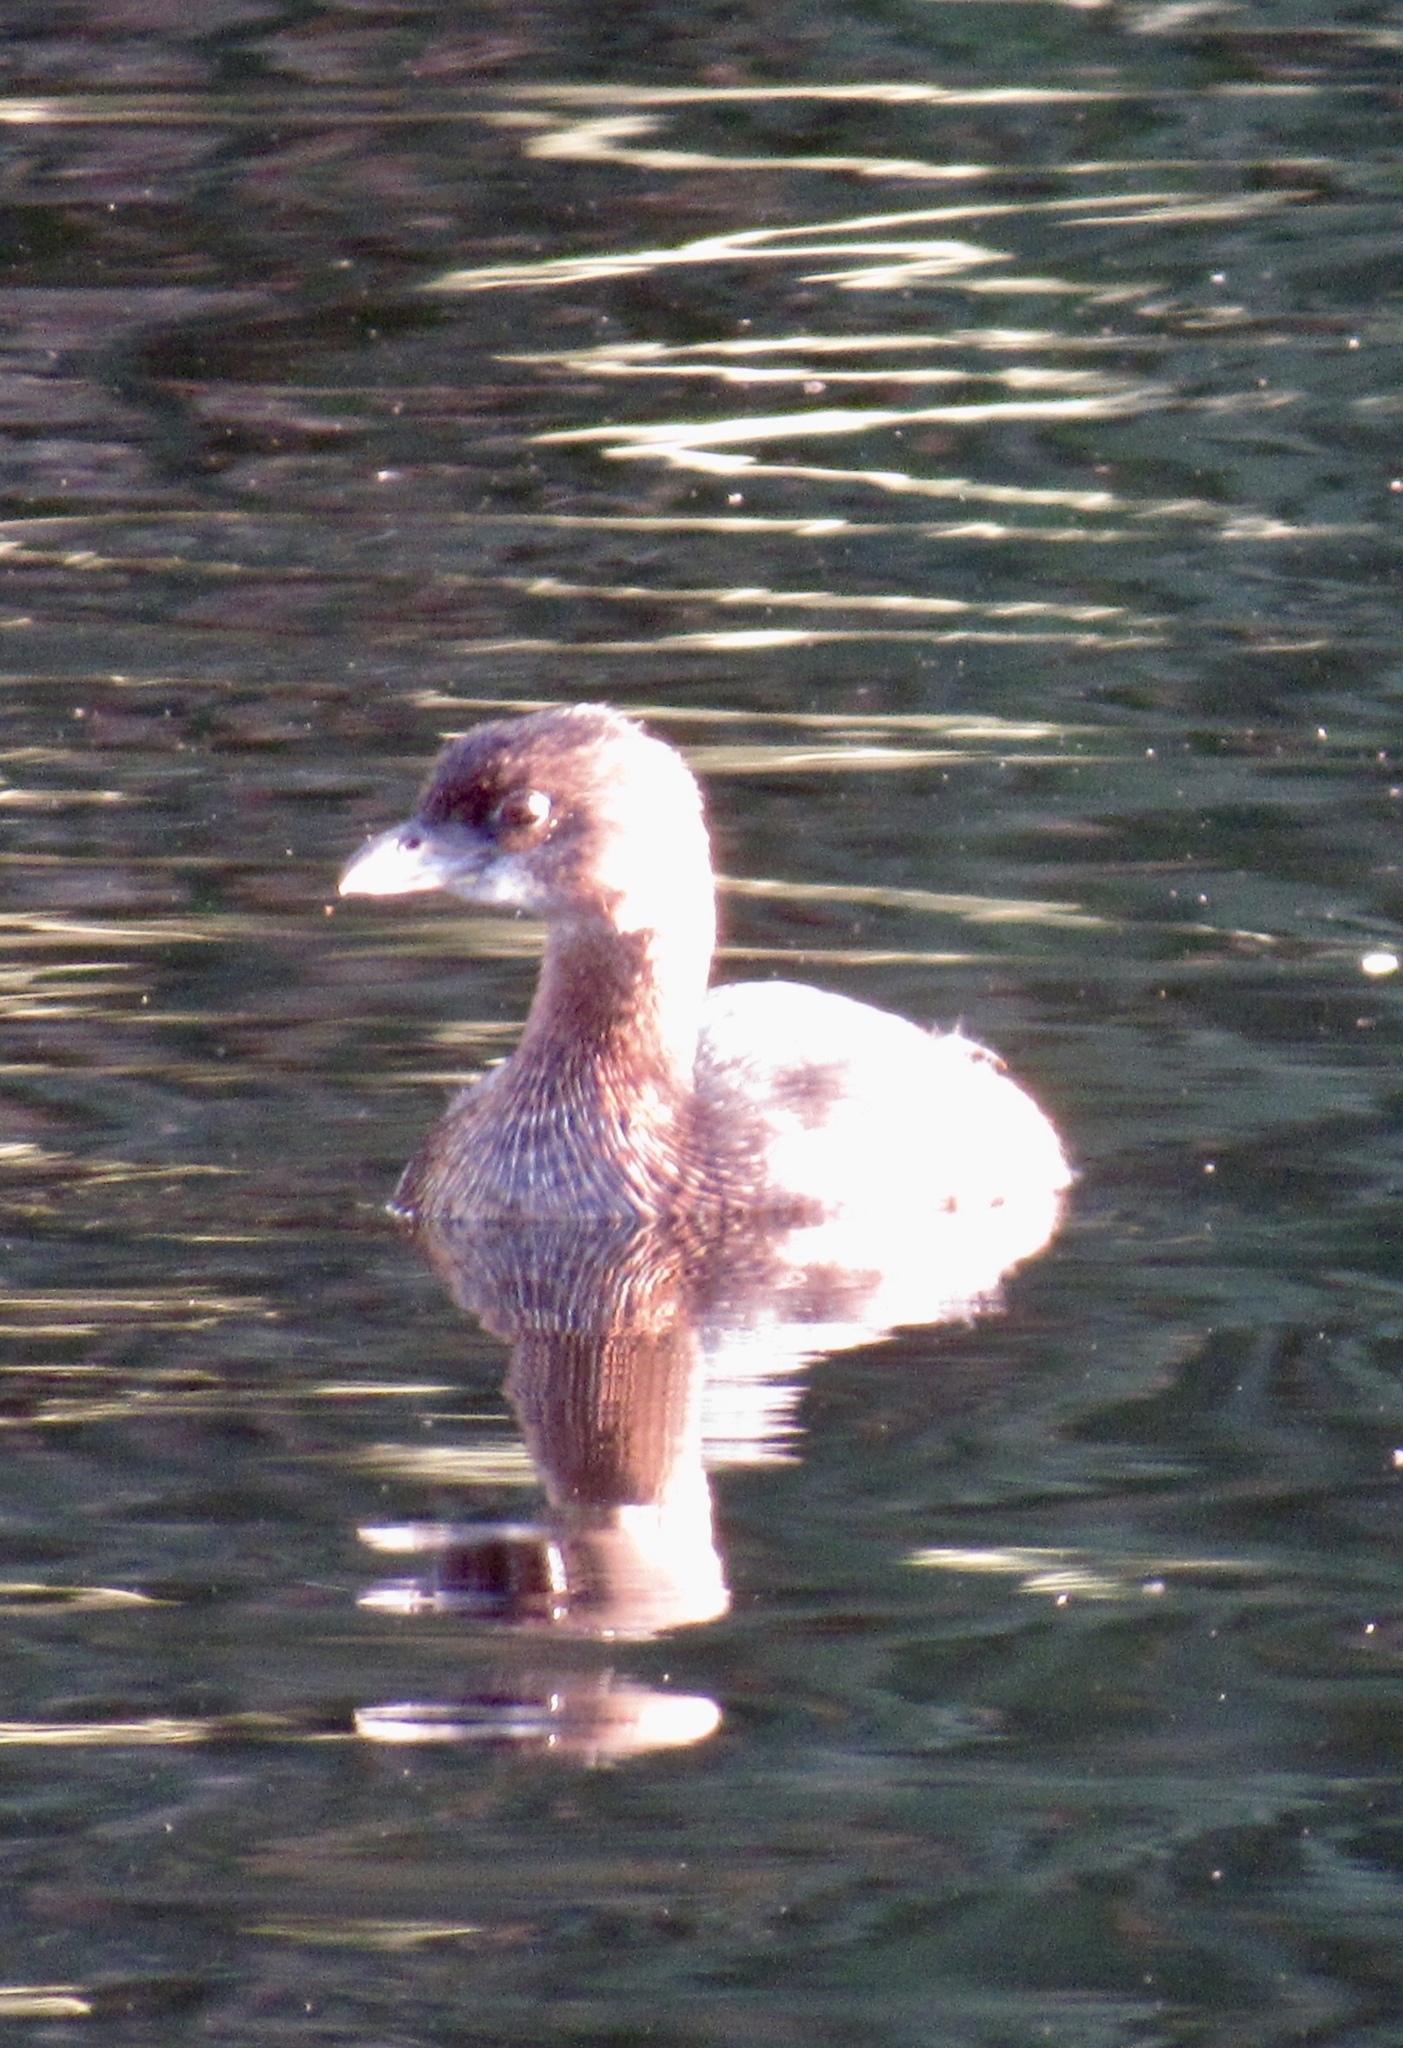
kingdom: Animalia
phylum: Chordata
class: Aves
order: Podicipediformes
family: Podicipedidae
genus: Podilymbus
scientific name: Podilymbus podiceps
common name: Pied-billed grebe
